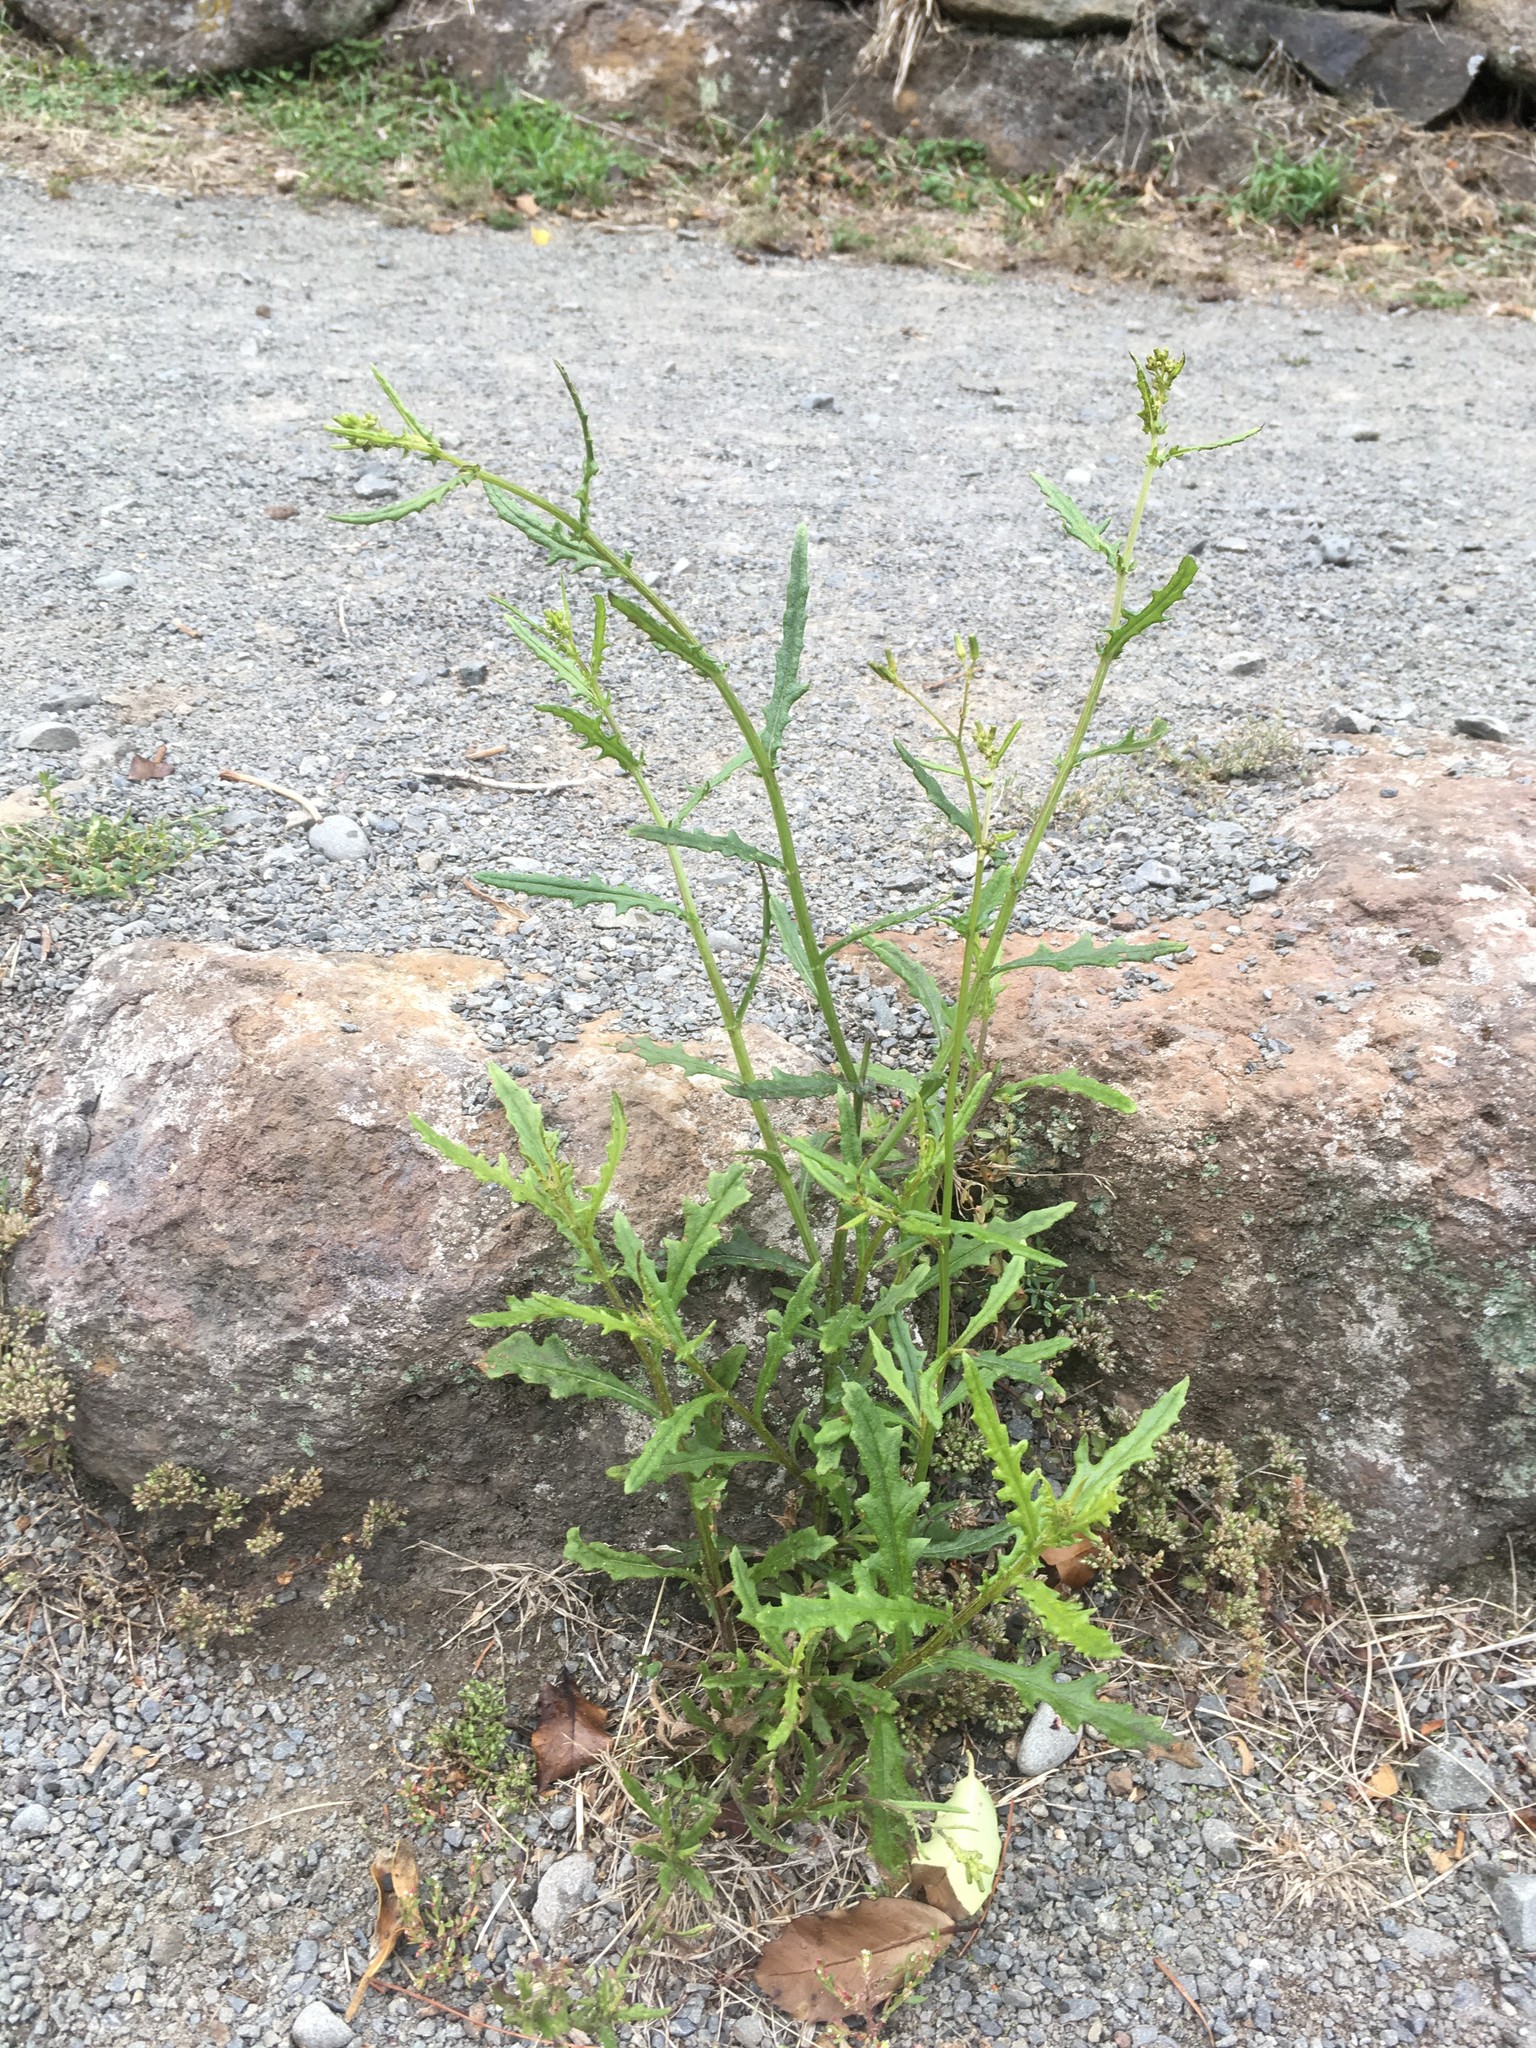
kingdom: Plantae
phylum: Tracheophyta
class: Magnoliopsida
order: Asterales
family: Asteraceae
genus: Senecio
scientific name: Senecio hispidulus
